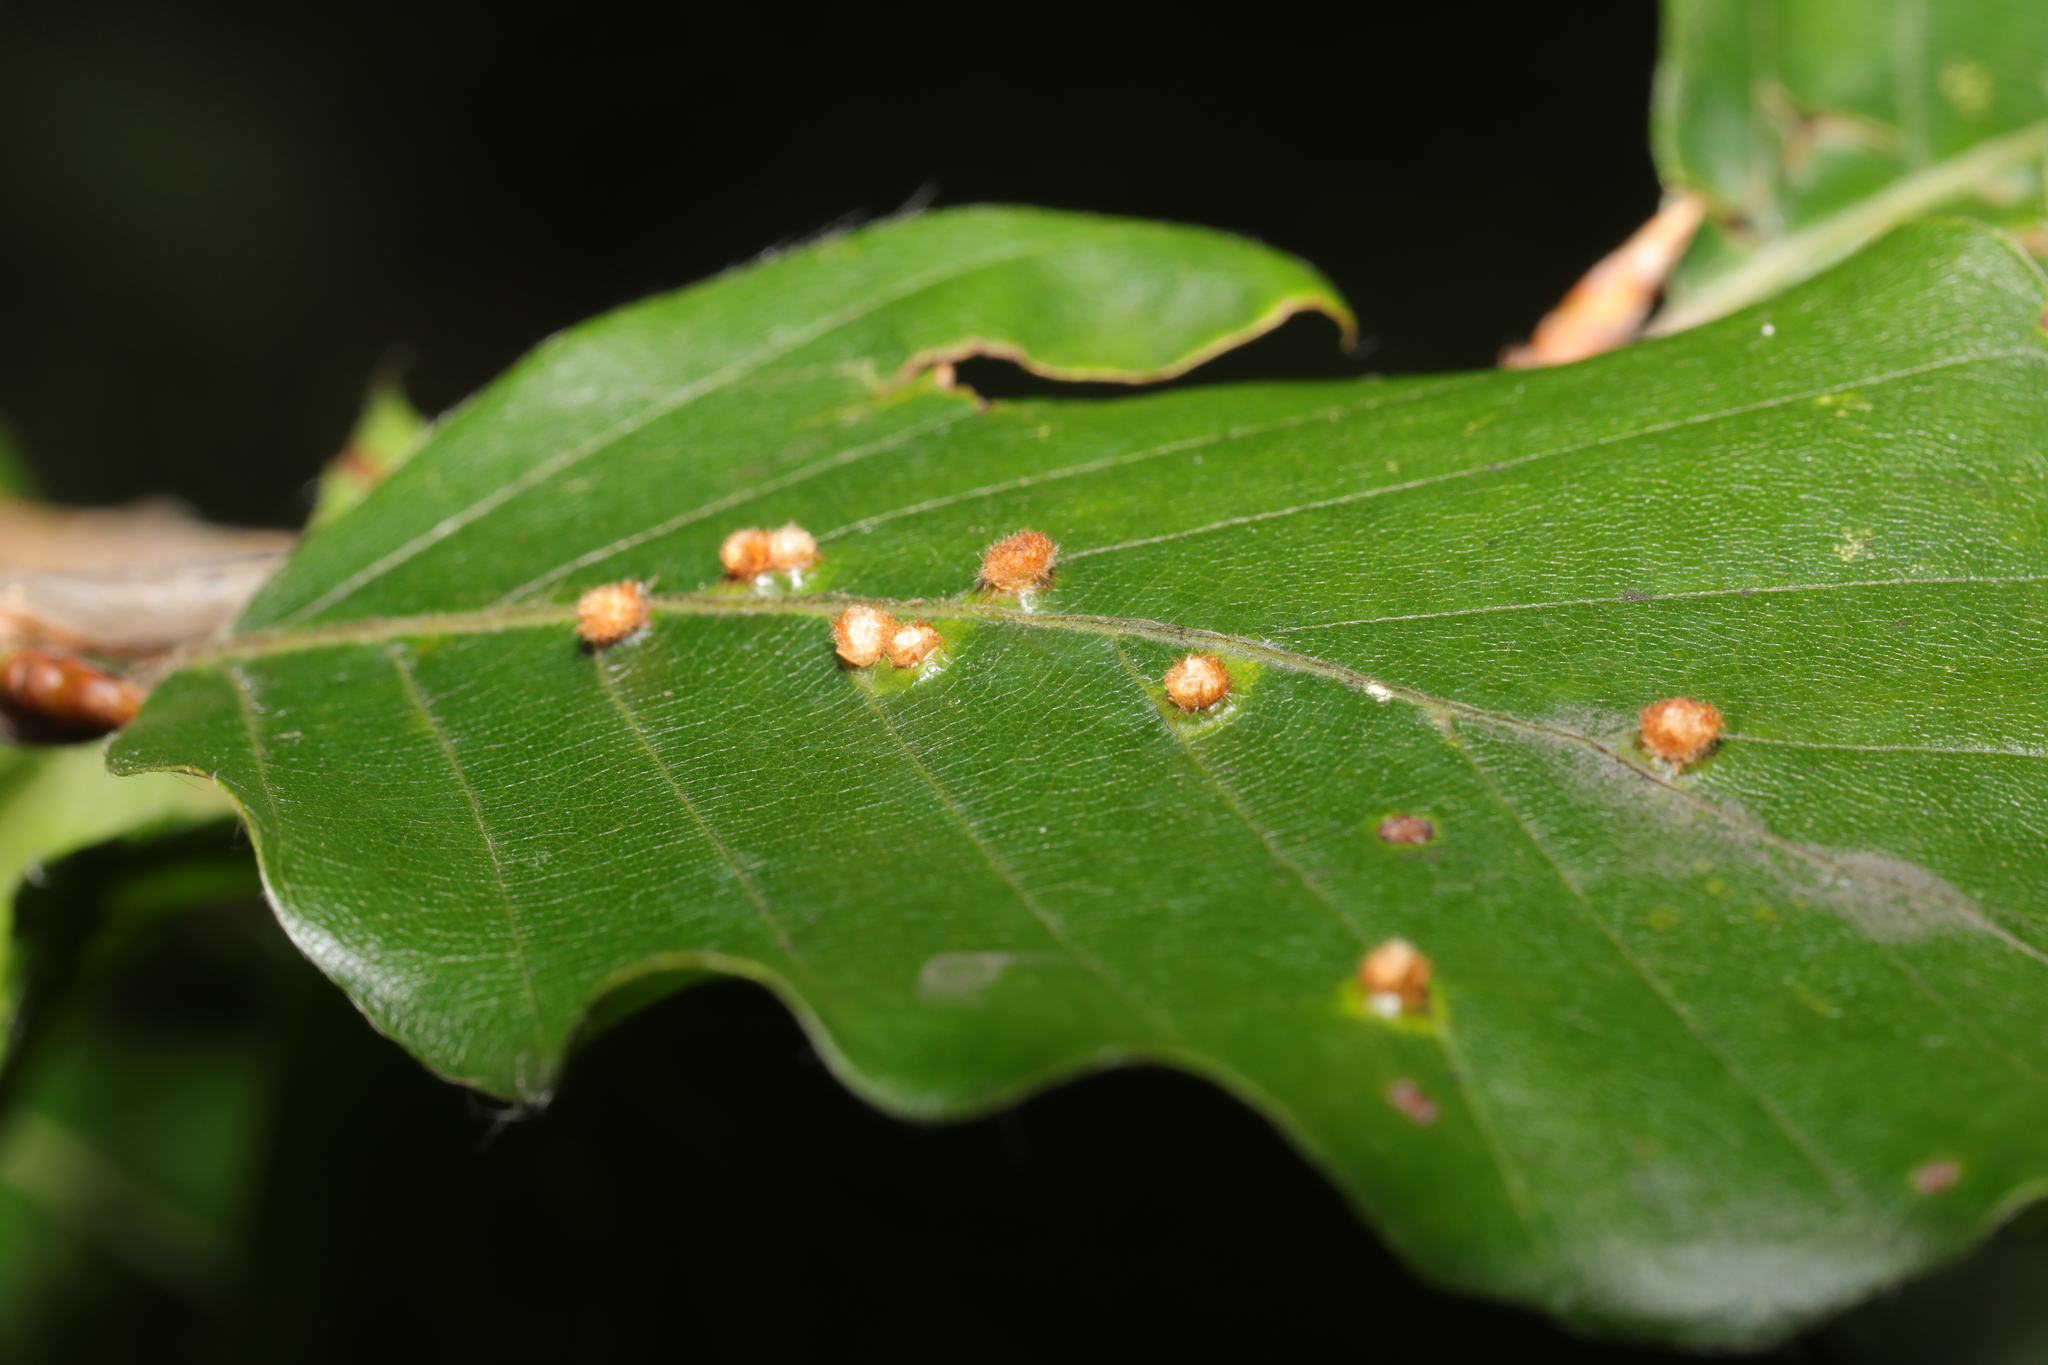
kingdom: Animalia
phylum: Arthropoda
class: Insecta
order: Diptera
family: Cecidomyiidae
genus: Hartigiola
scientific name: Hartigiola annulipes
